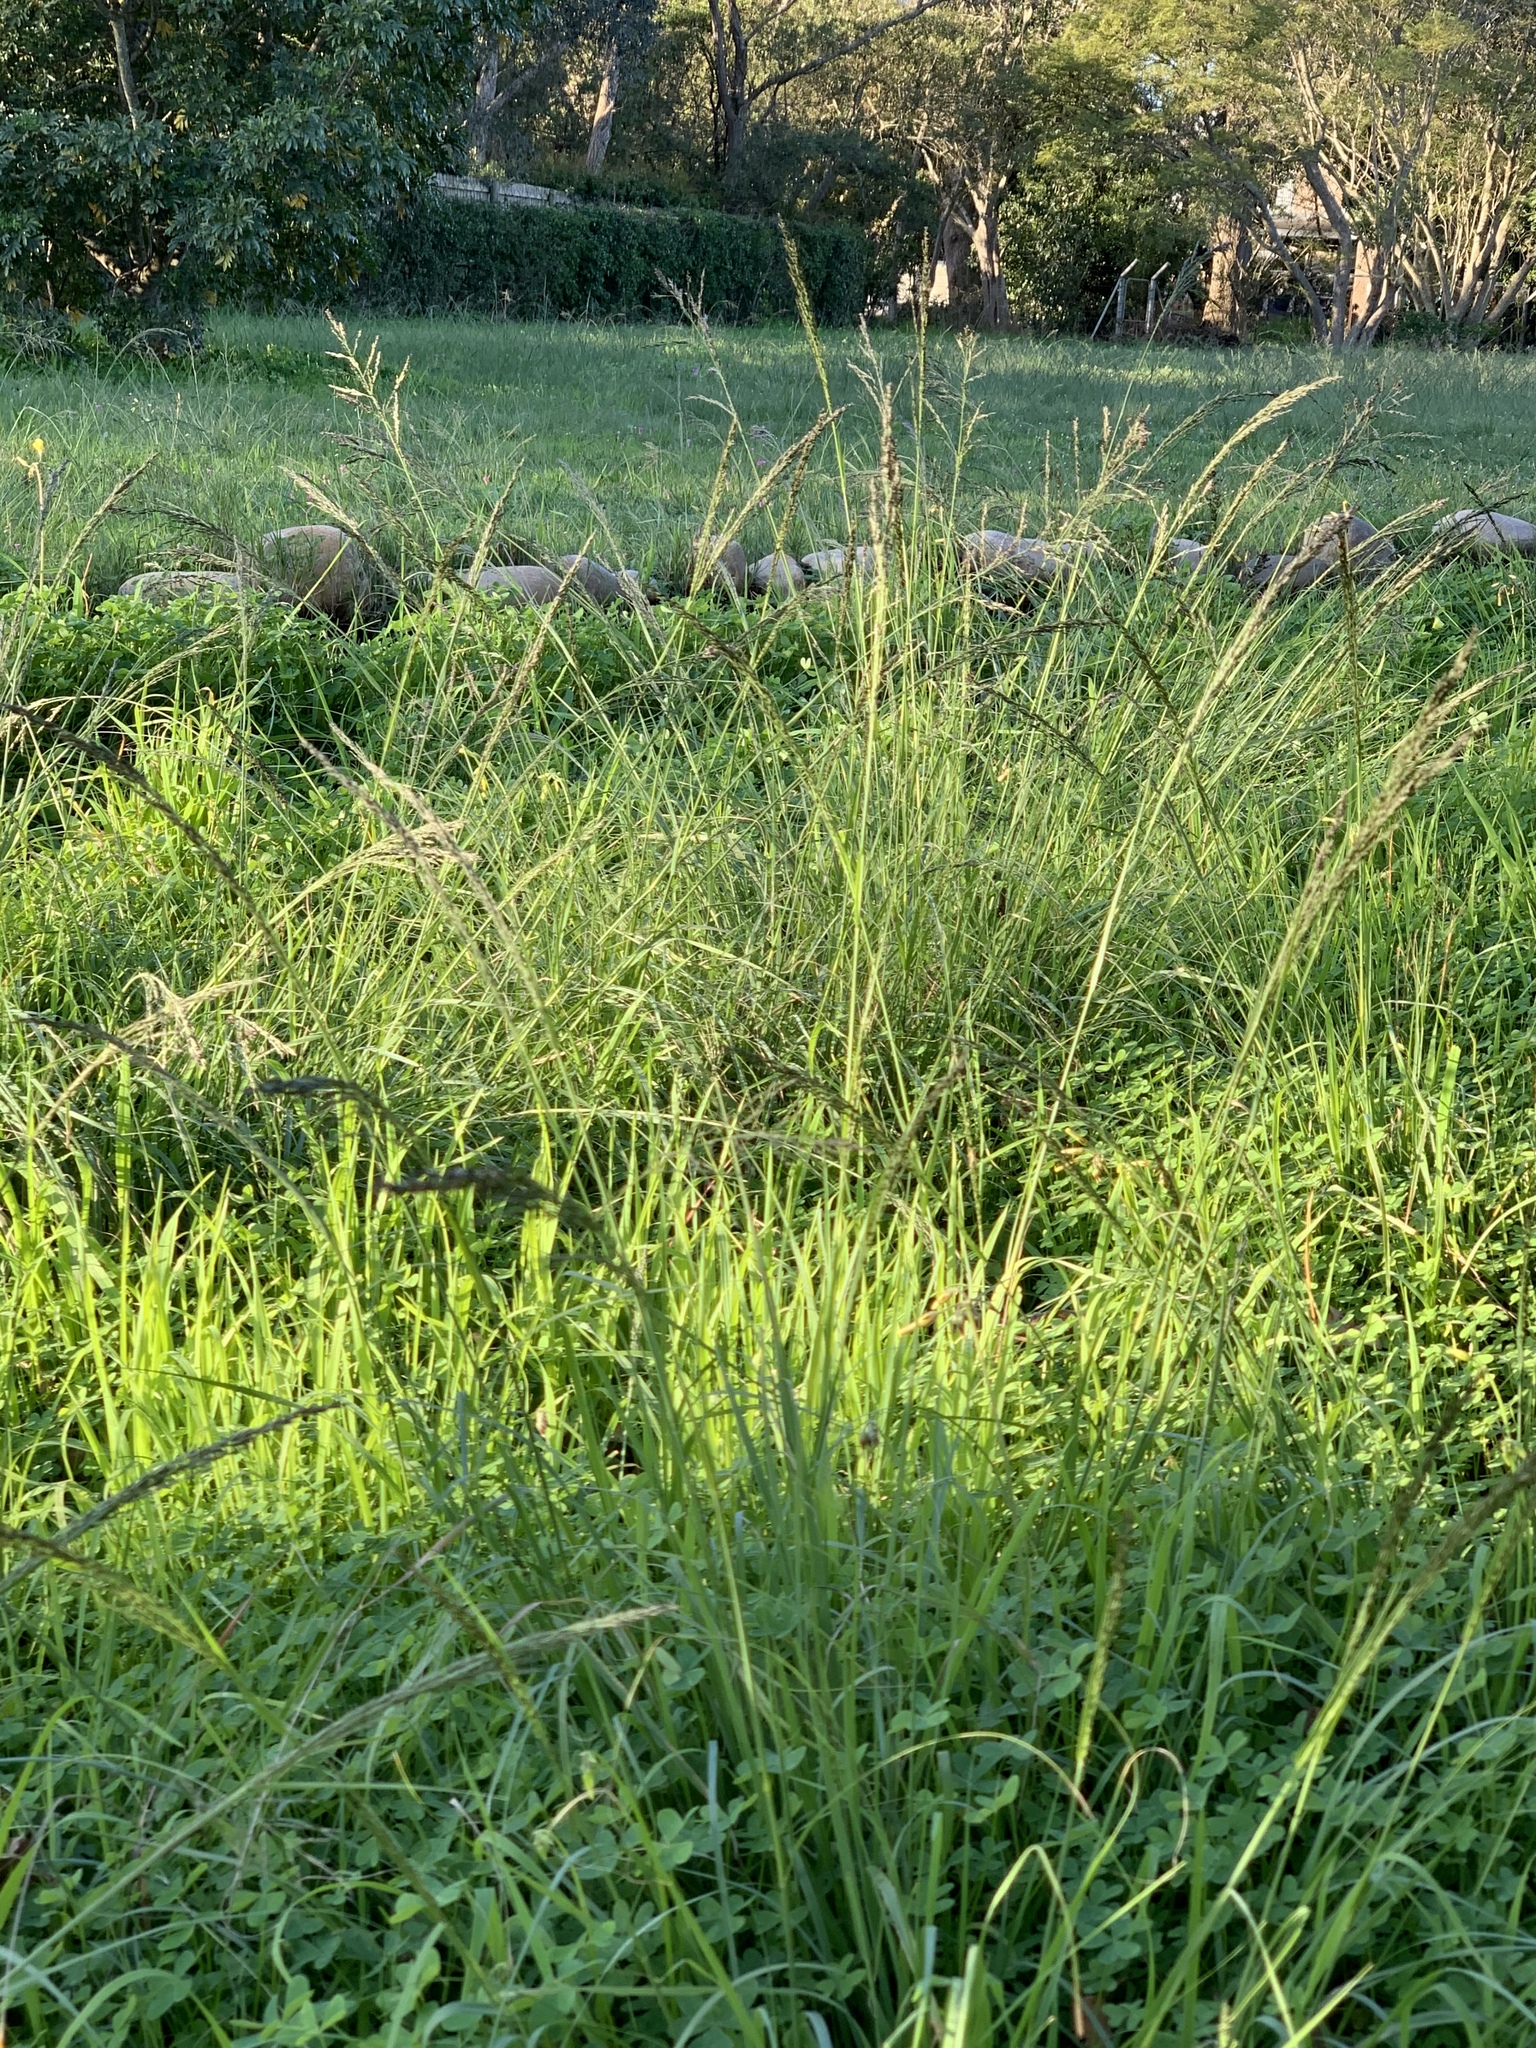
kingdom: Plantae
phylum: Tracheophyta
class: Liliopsida
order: Poales
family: Poaceae
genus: Eragrostis
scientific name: Eragrostis curvula
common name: African love-grass
